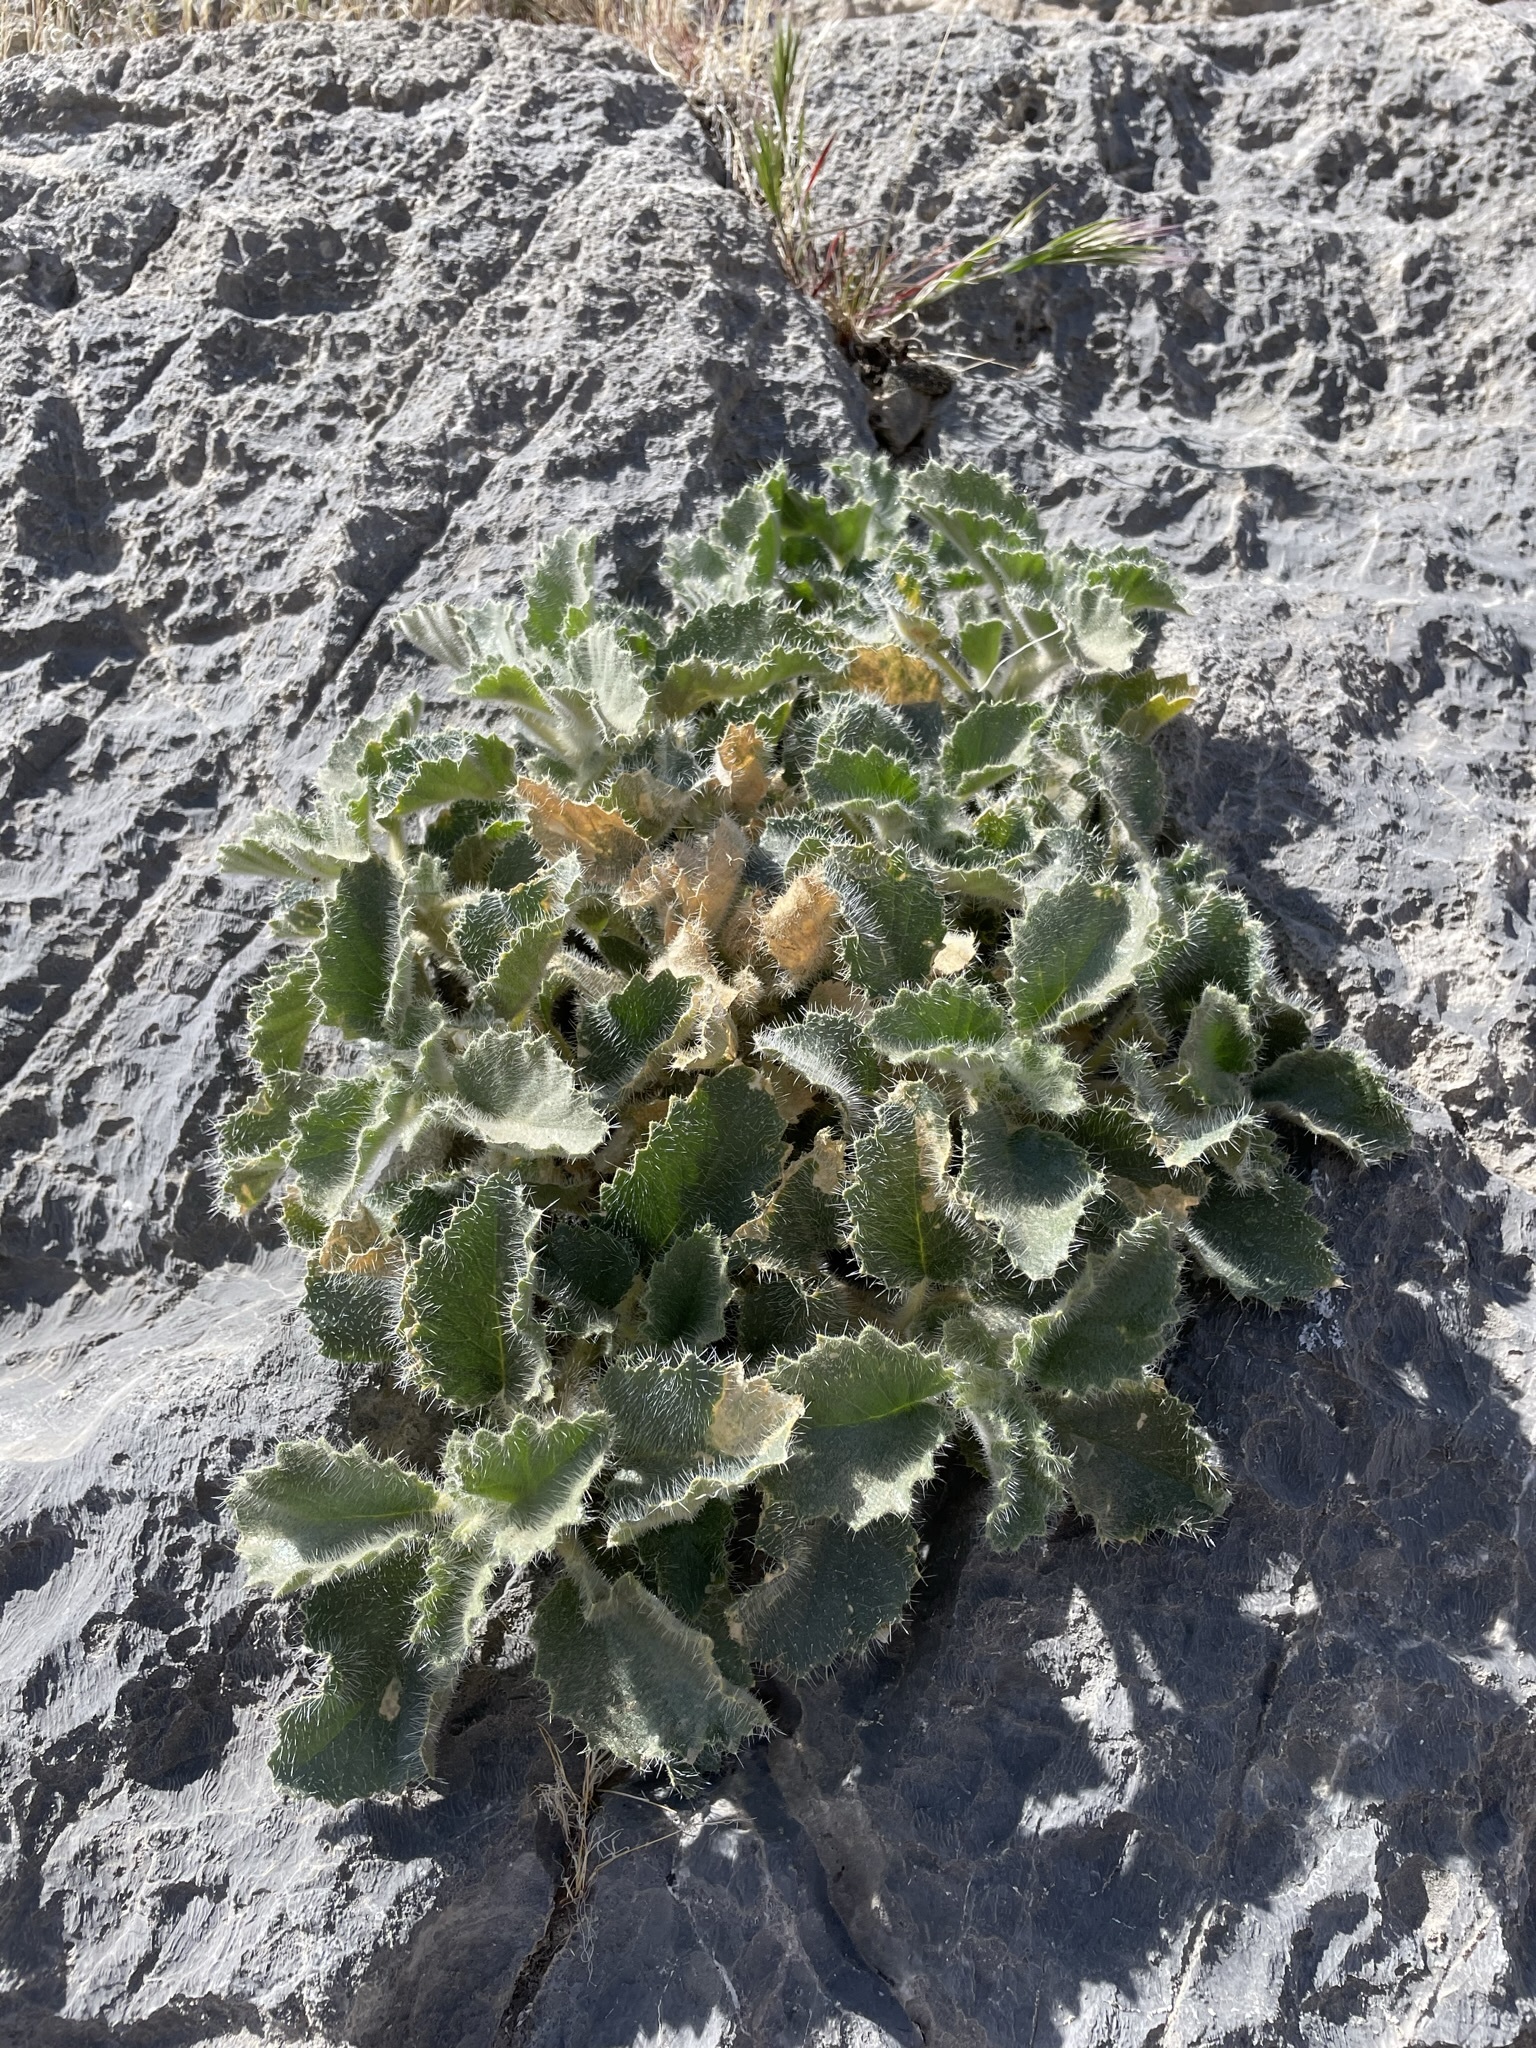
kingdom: Plantae
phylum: Tracheophyta
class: Magnoliopsida
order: Cornales
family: Loasaceae
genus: Eucnide
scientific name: Eucnide urens
